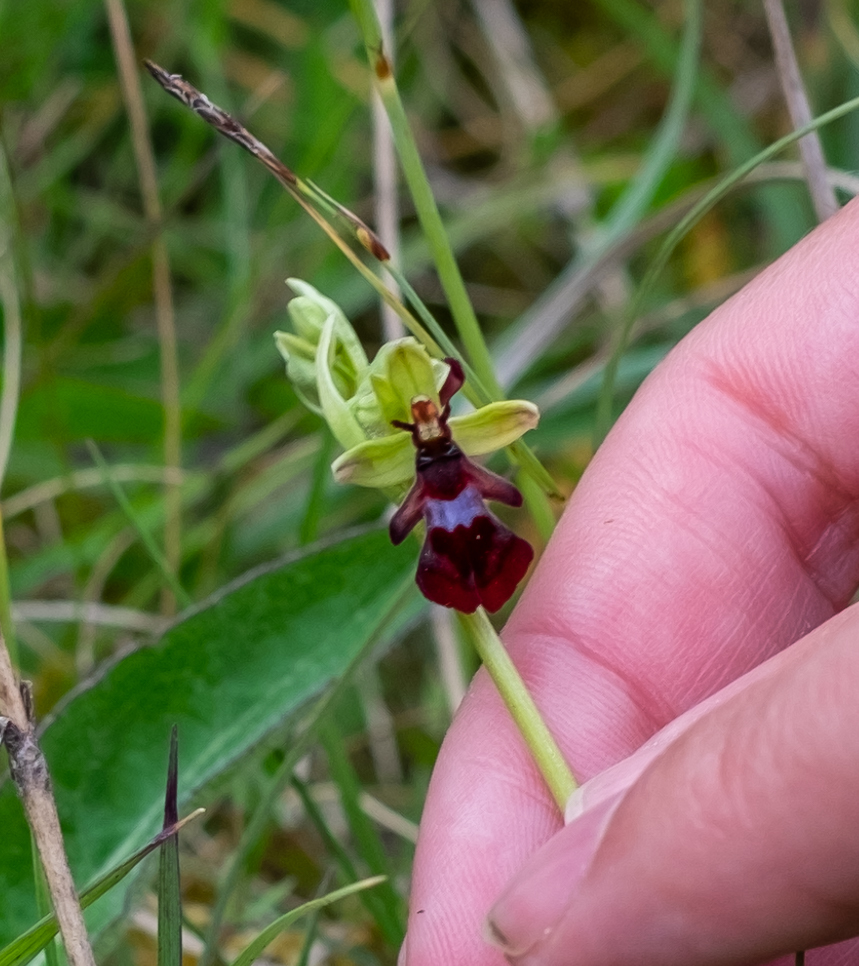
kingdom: Plantae
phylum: Tracheophyta
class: Liliopsida
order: Asparagales
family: Orchidaceae
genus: Ophrys
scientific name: Ophrys insectifera
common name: Fly orchid
